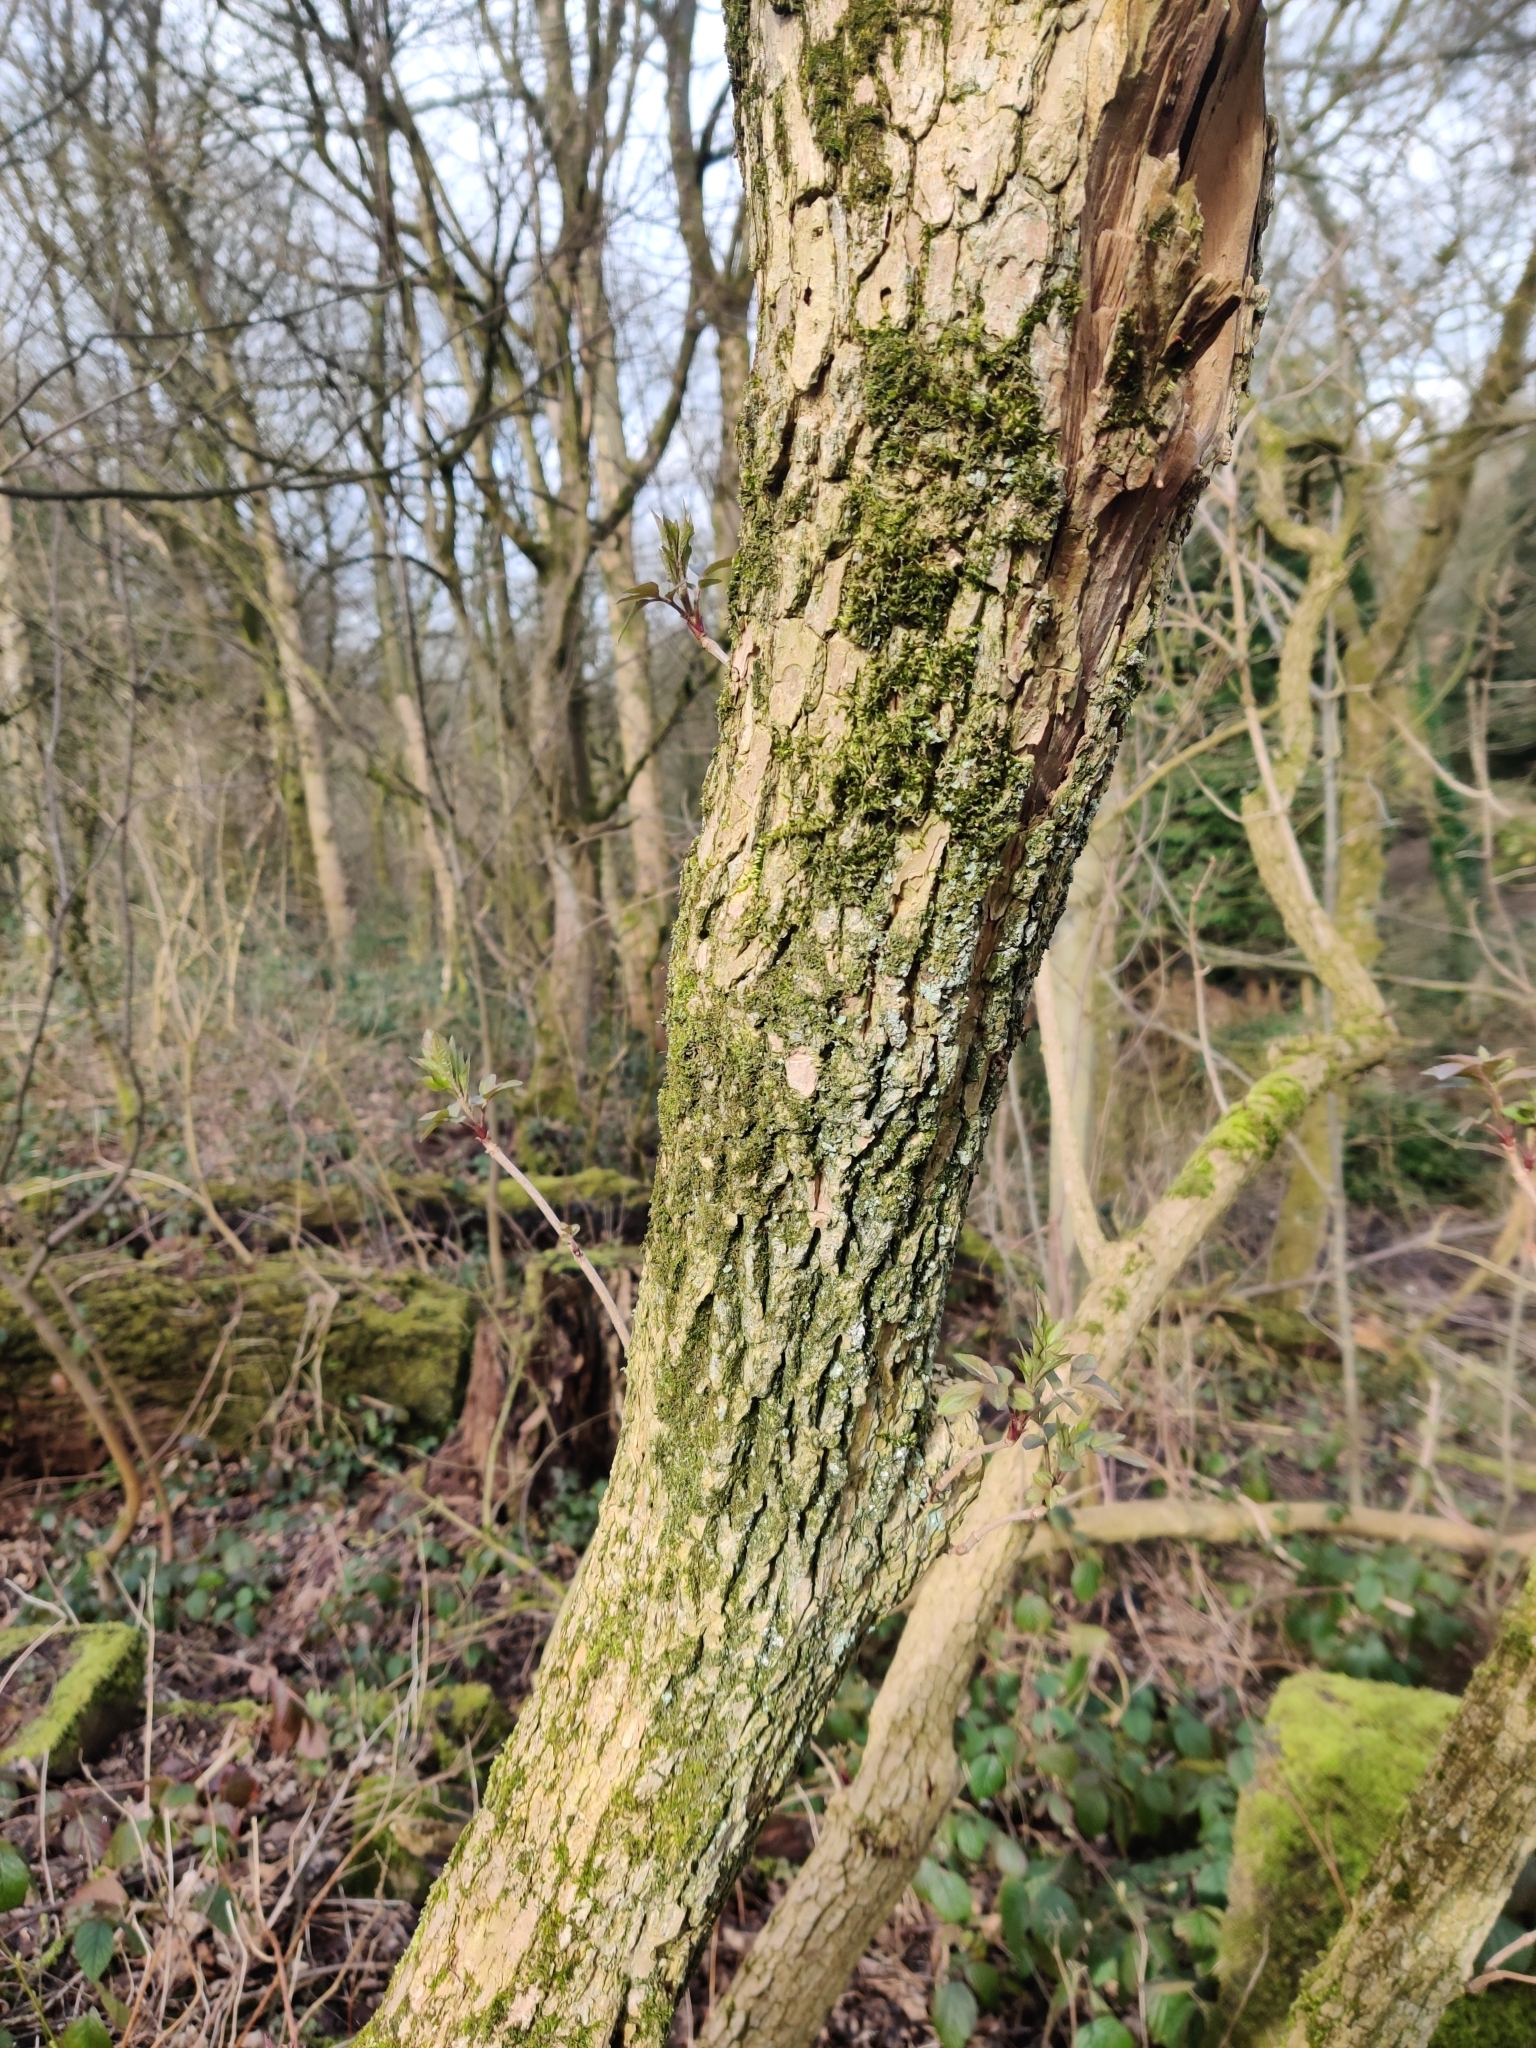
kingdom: Plantae
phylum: Tracheophyta
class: Magnoliopsida
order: Dipsacales
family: Viburnaceae
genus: Sambucus
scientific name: Sambucus nigra
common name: Elder
